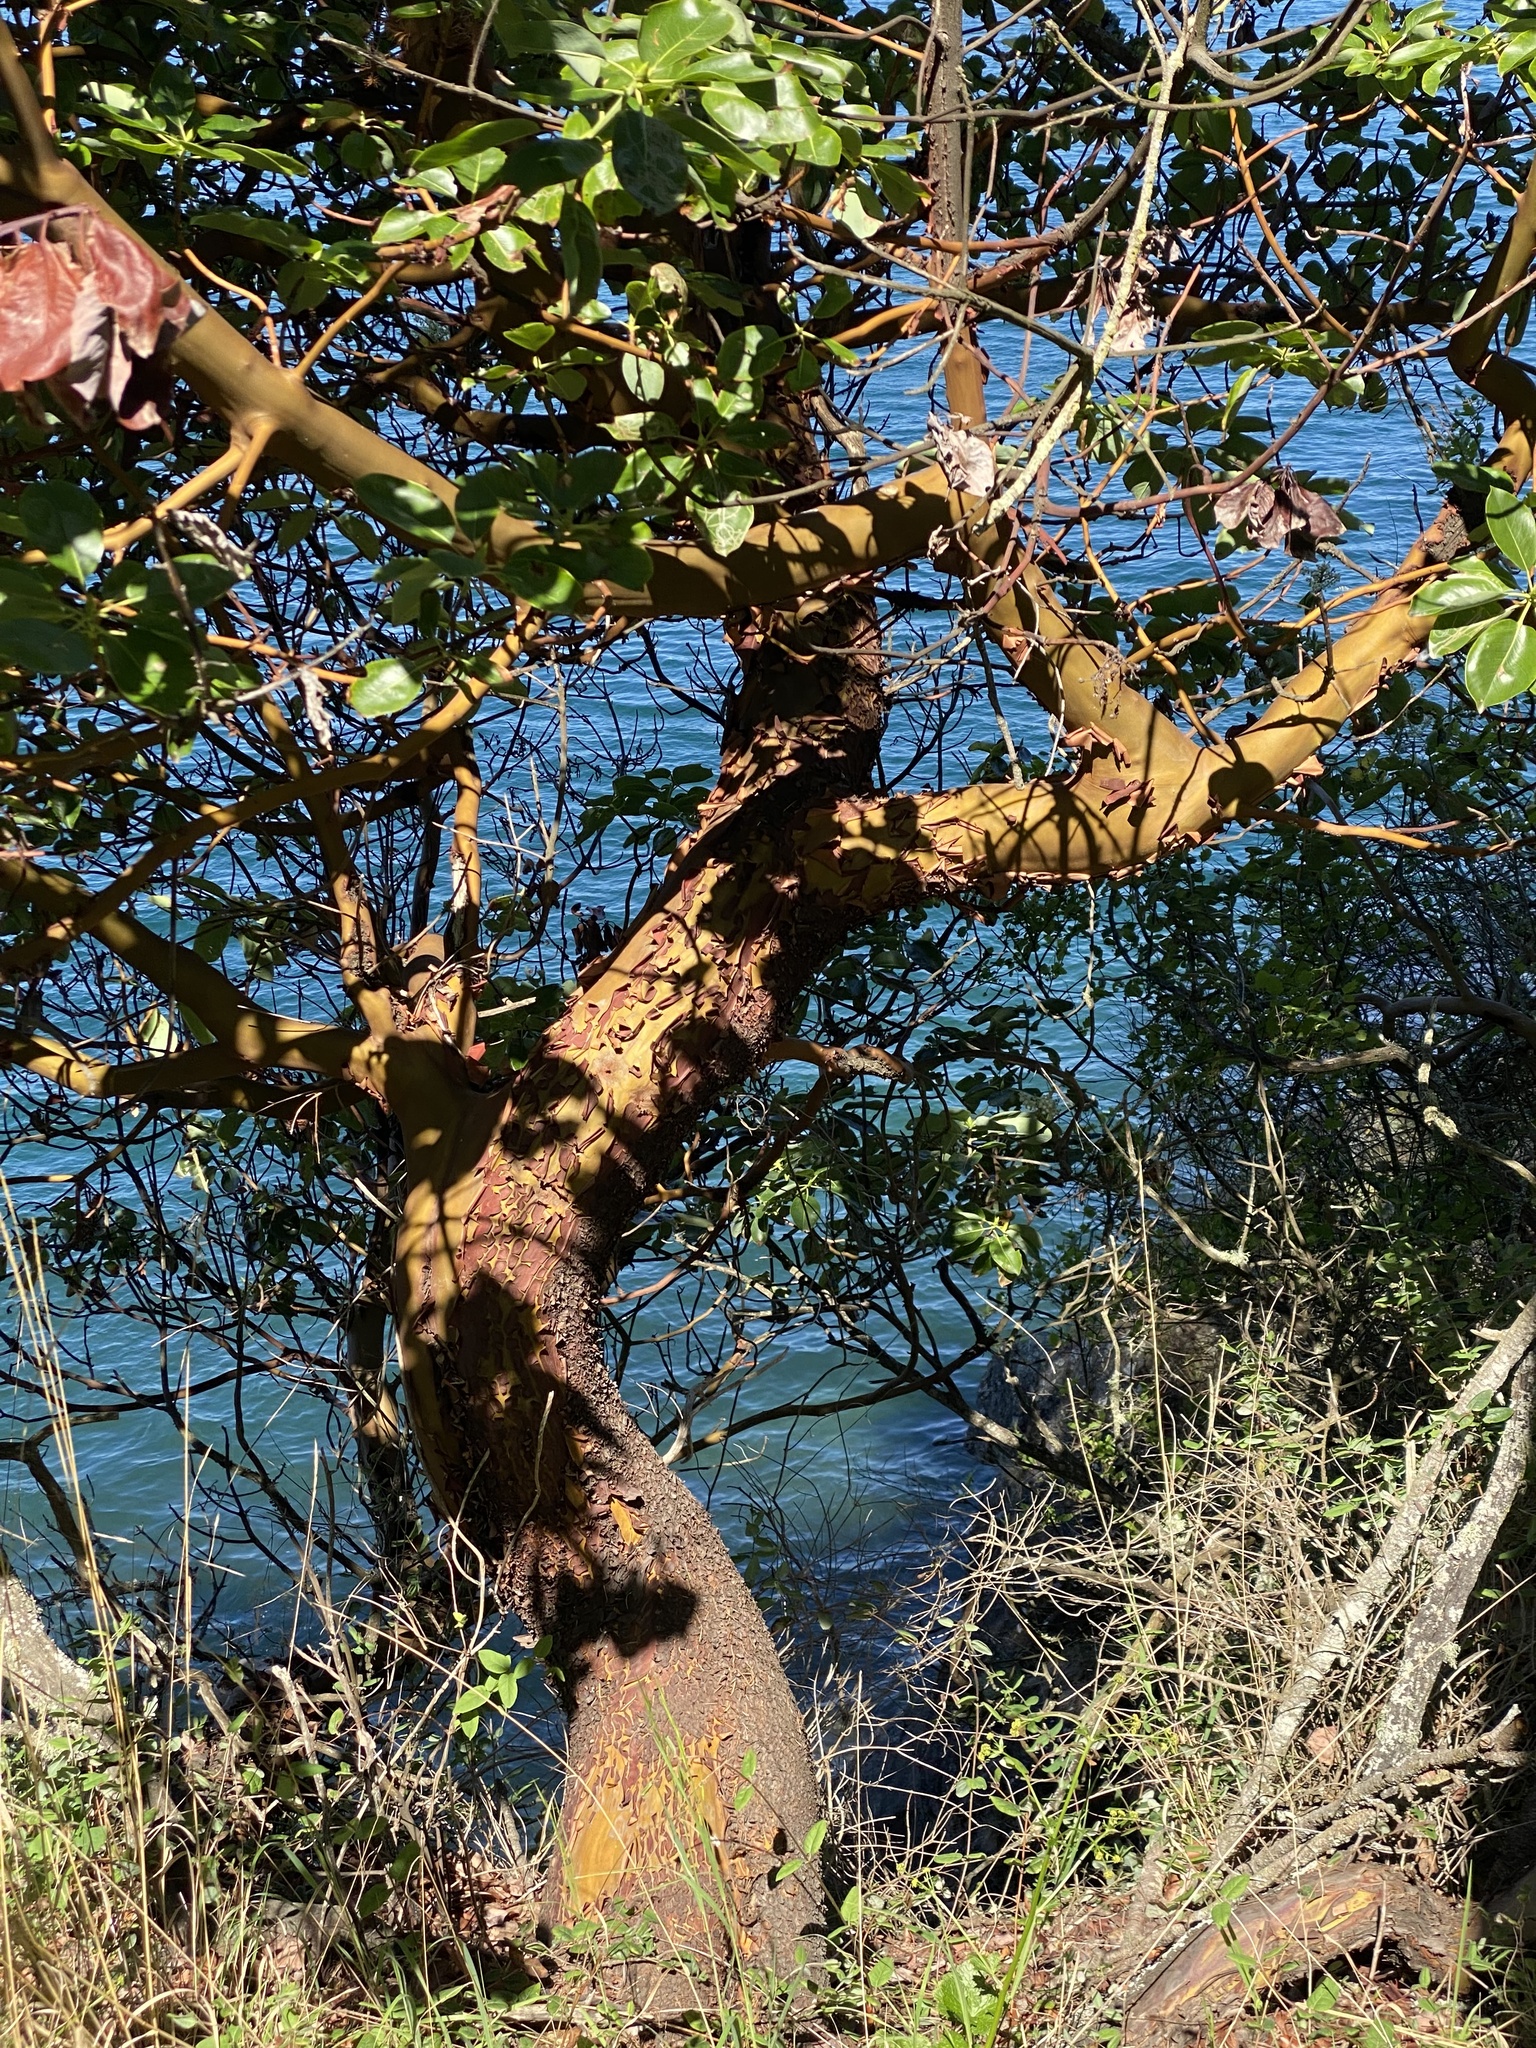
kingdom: Plantae
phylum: Tracheophyta
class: Magnoliopsida
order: Ericales
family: Ericaceae
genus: Arbutus
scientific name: Arbutus menziesii
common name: Pacific madrone
